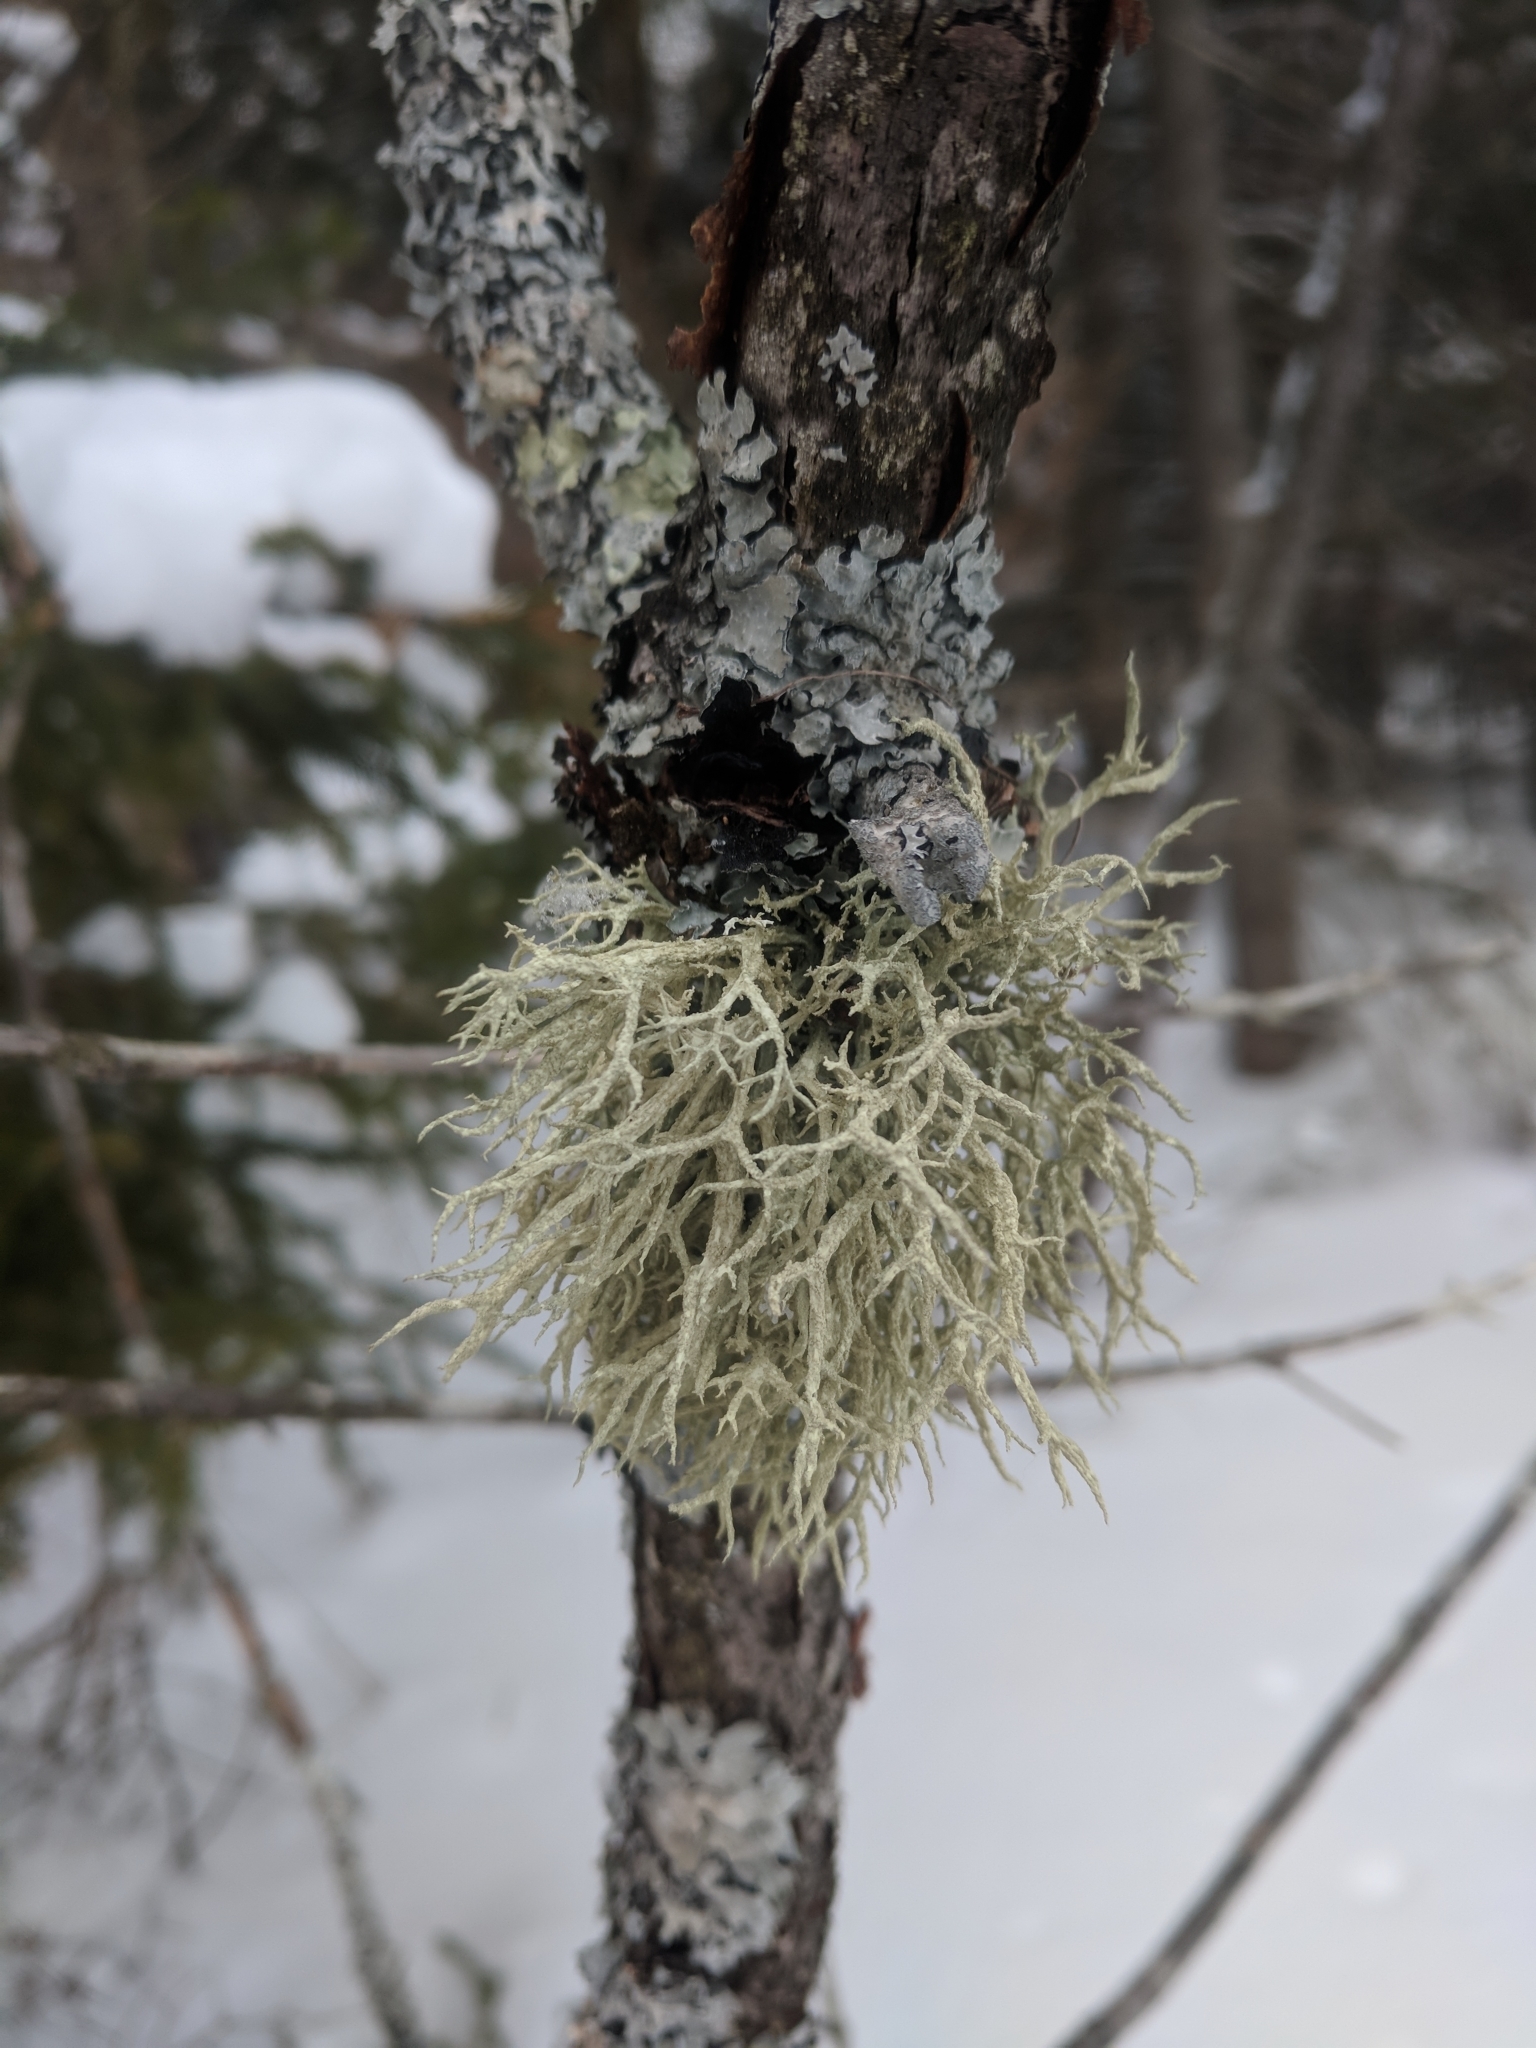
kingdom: Fungi
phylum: Ascomycota
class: Lecanoromycetes
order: Lecanorales
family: Parmeliaceae
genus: Evernia
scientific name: Evernia mesomorpha
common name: Boreal oak moss lichen
